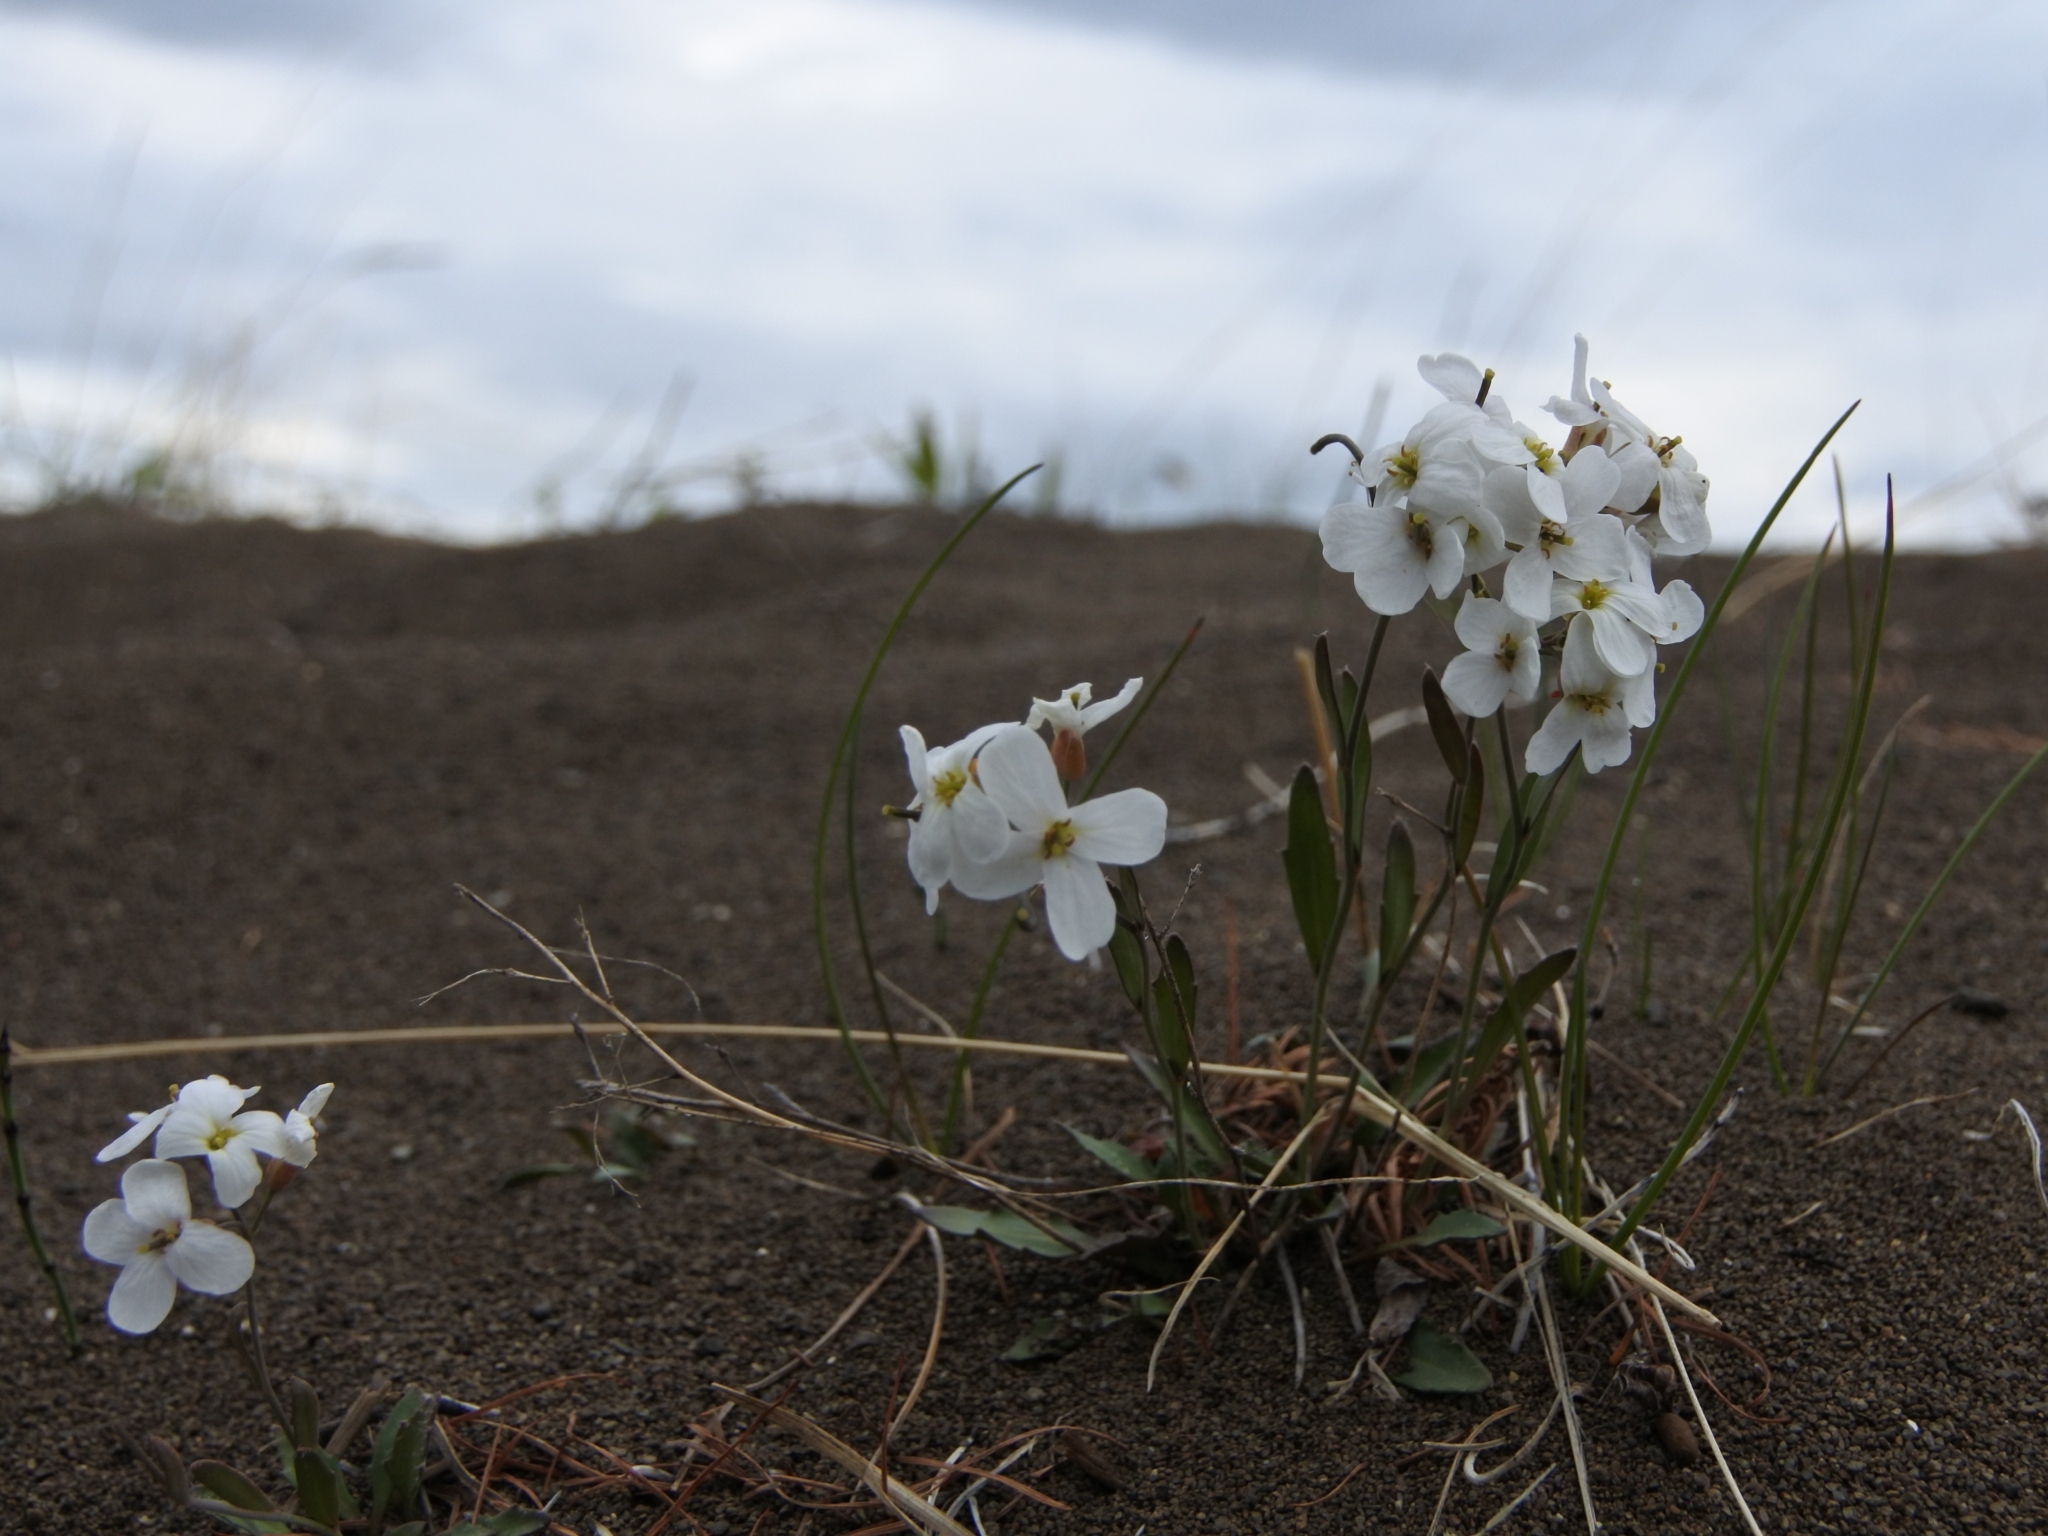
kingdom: Plantae
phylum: Tracheophyta
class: Magnoliopsida
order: Brassicales
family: Brassicaceae
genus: Arabidopsis
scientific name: Arabidopsis lyrata
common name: Lyrate rockcress
